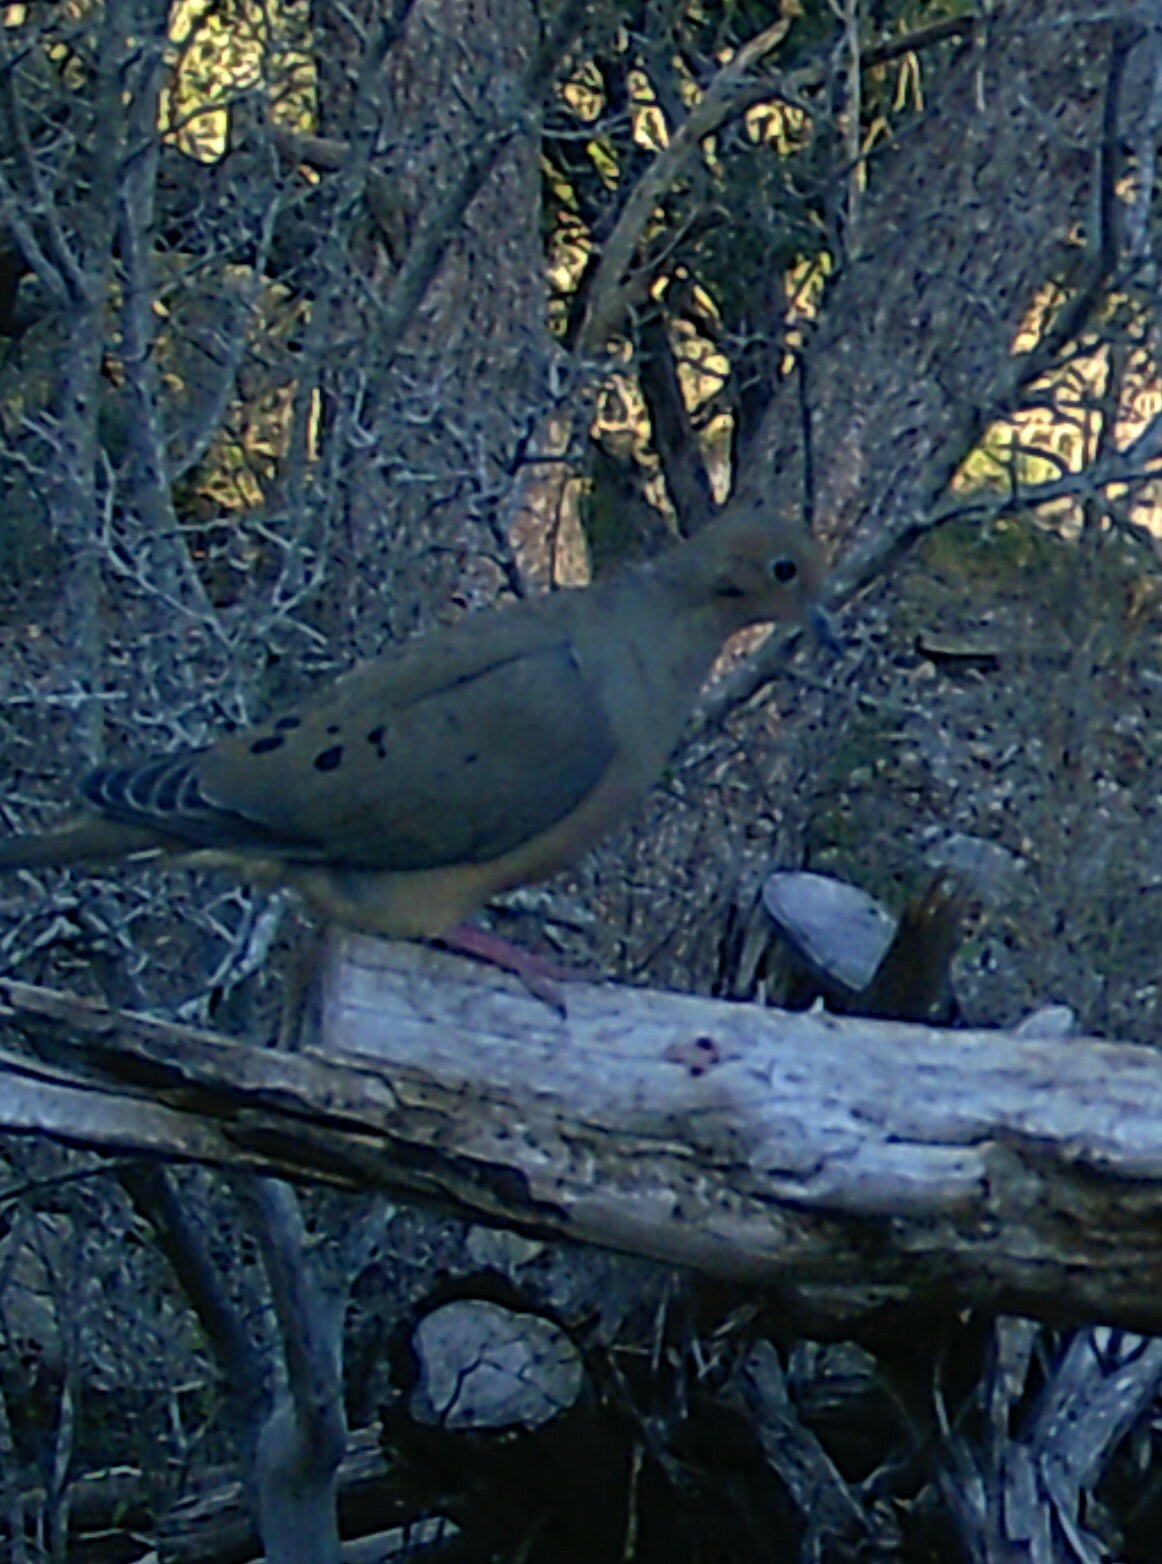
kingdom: Animalia
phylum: Chordata
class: Aves
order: Columbiformes
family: Columbidae
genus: Zenaida
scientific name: Zenaida macroura
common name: Mourning dove
